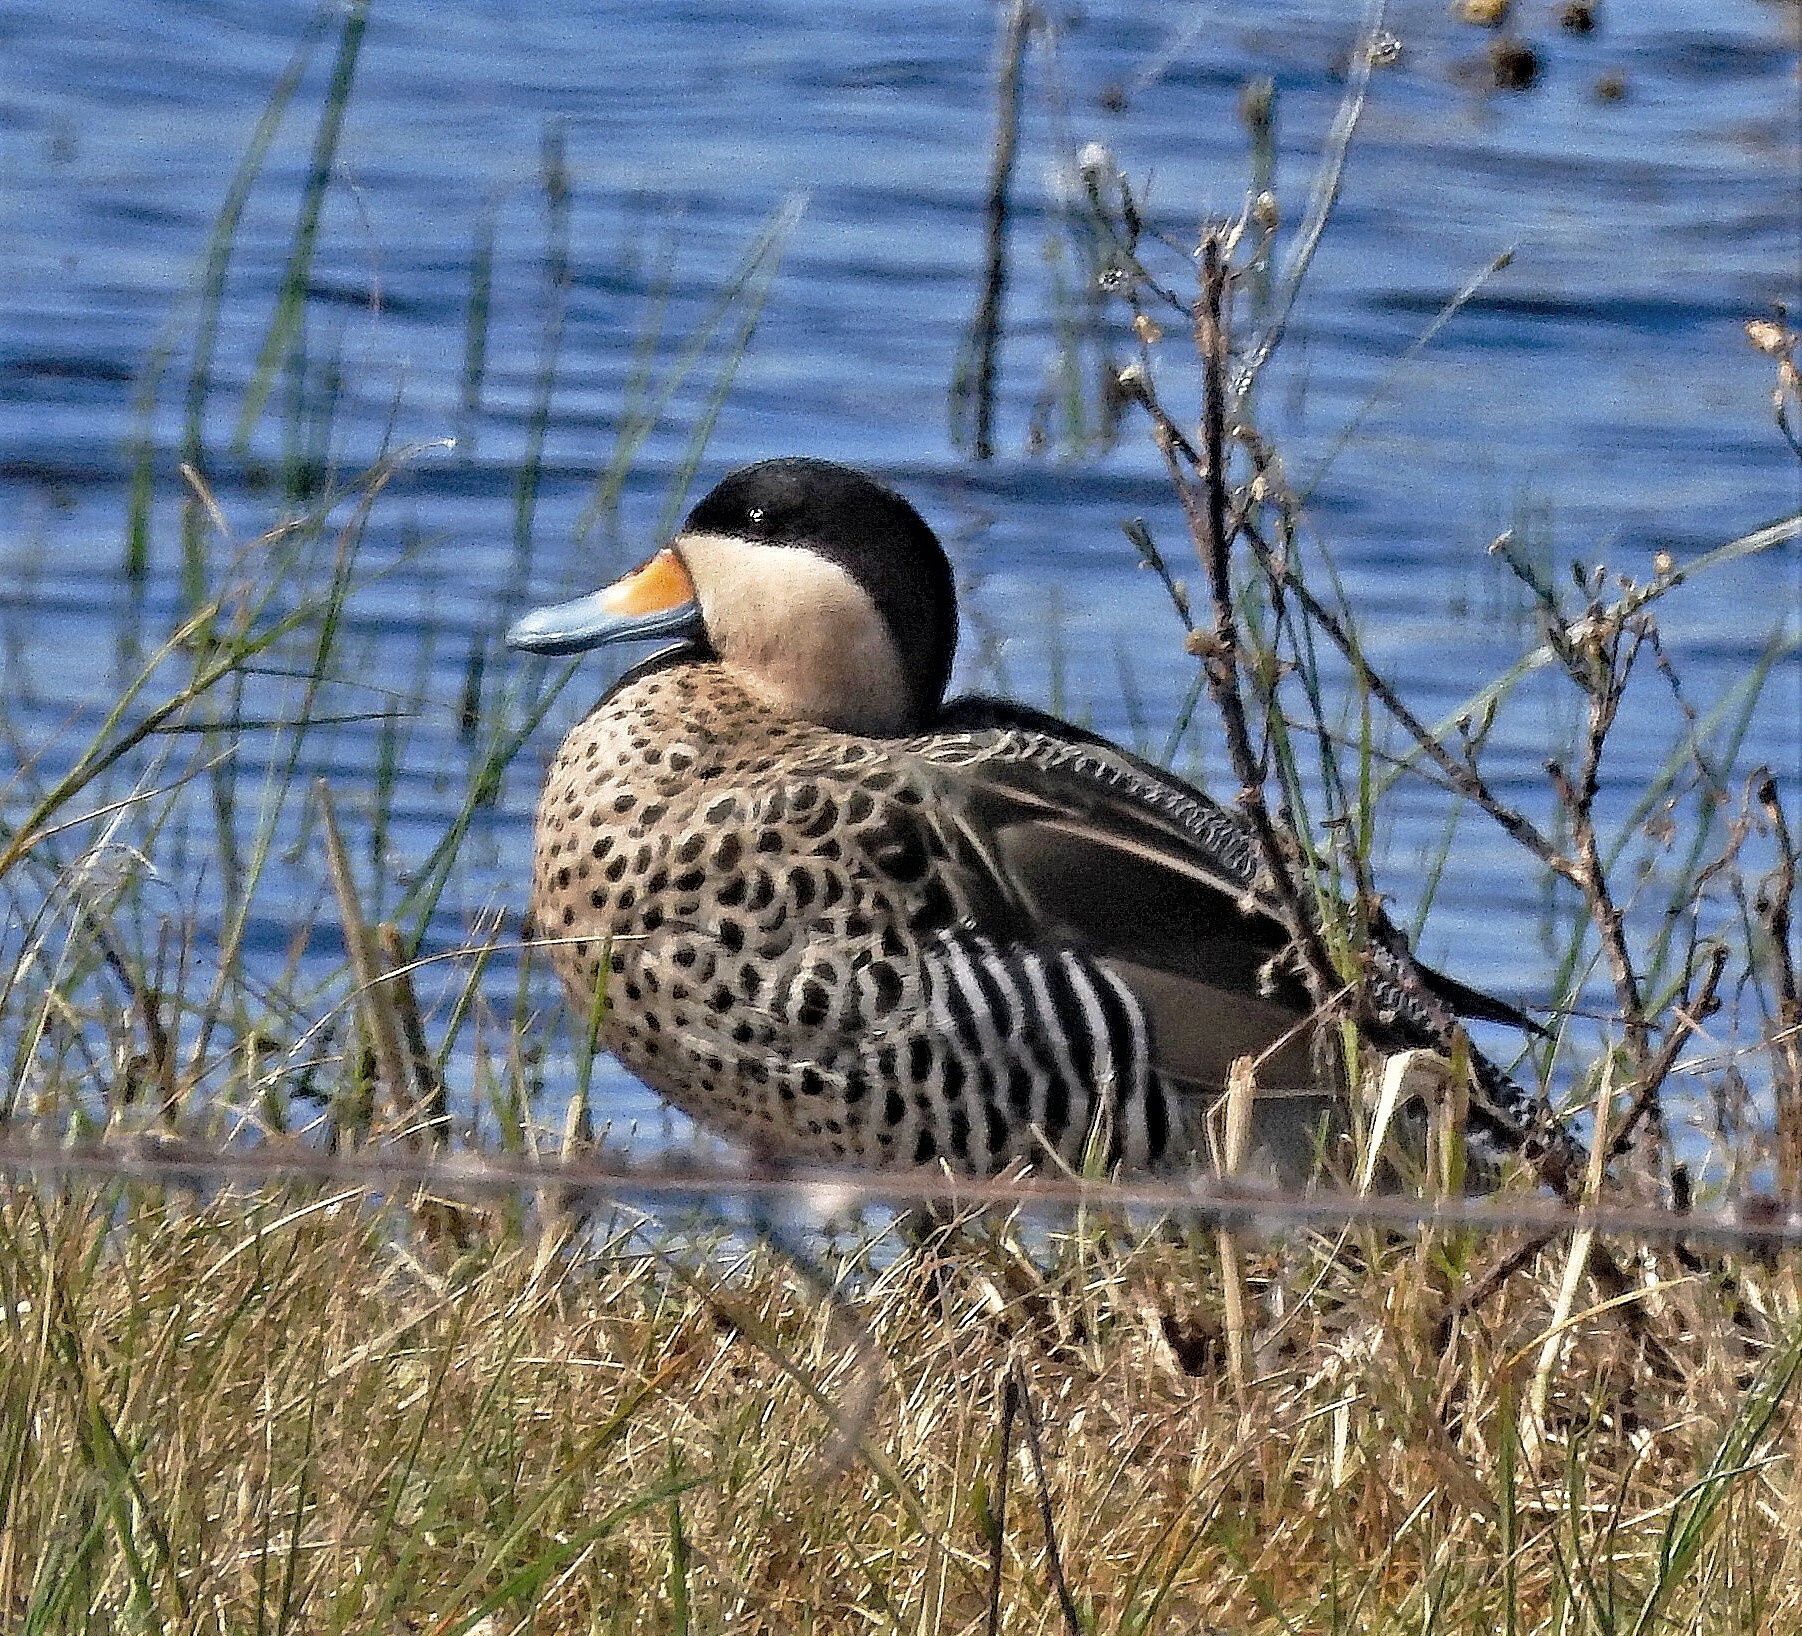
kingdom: Animalia
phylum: Chordata
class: Aves
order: Anseriformes
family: Anatidae
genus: Spatula
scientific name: Spatula versicolor
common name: Silver teal
